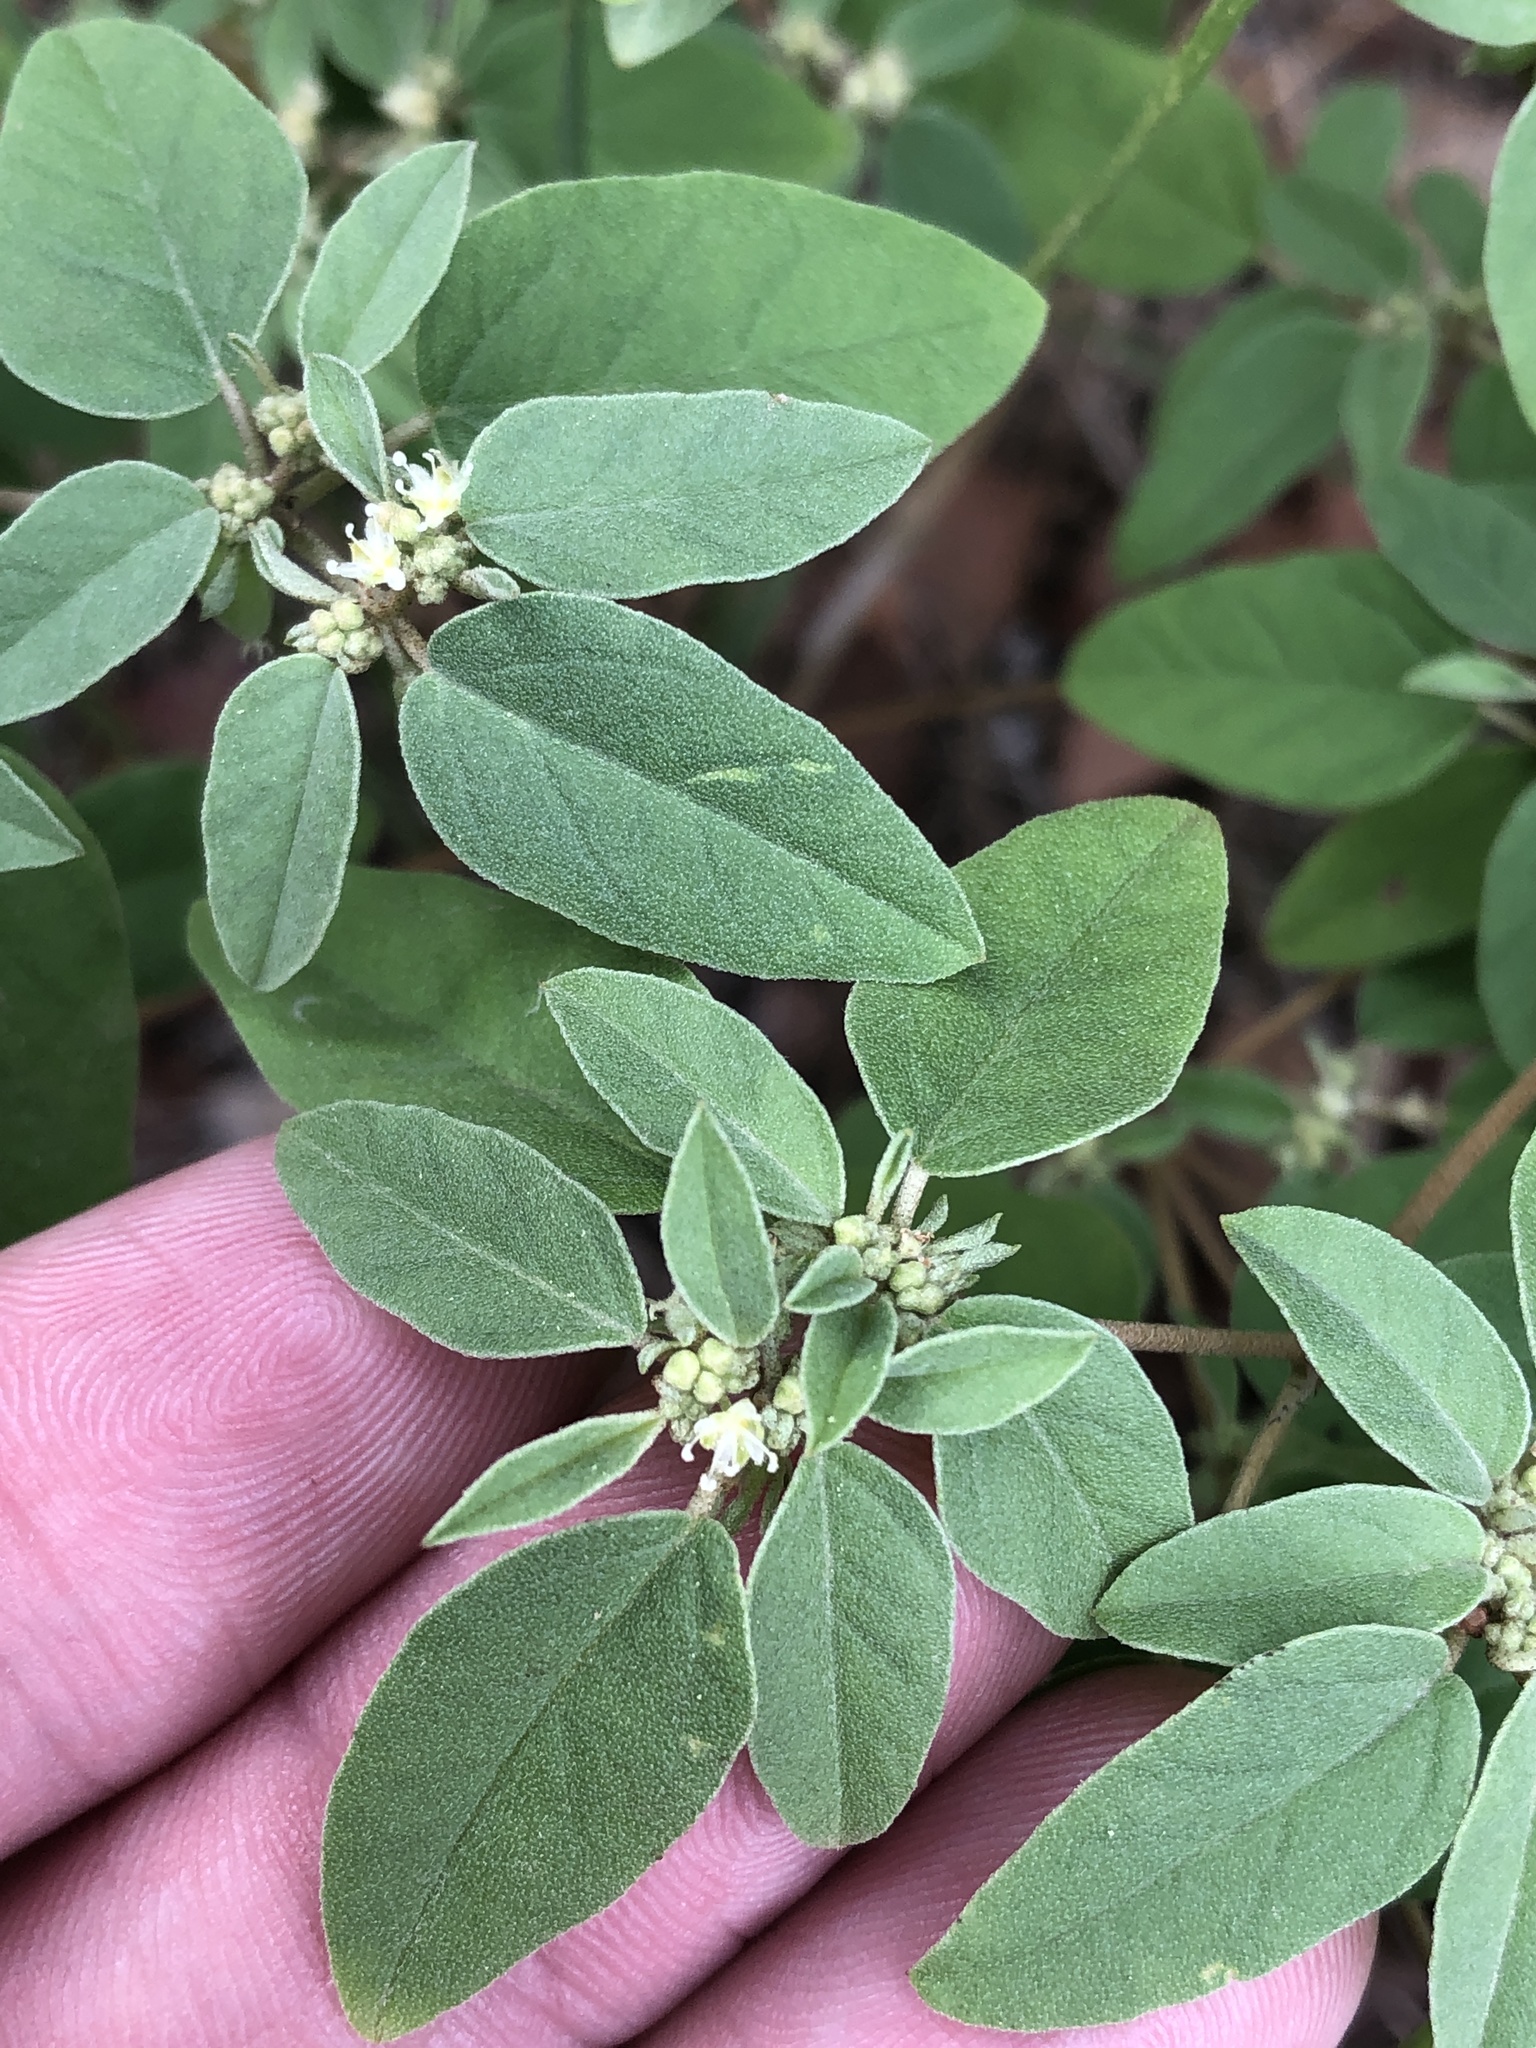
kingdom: Plantae
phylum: Tracheophyta
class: Magnoliopsida
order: Malpighiales
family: Euphorbiaceae
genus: Croton
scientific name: Croton monanthogynus
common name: One-seed croton
